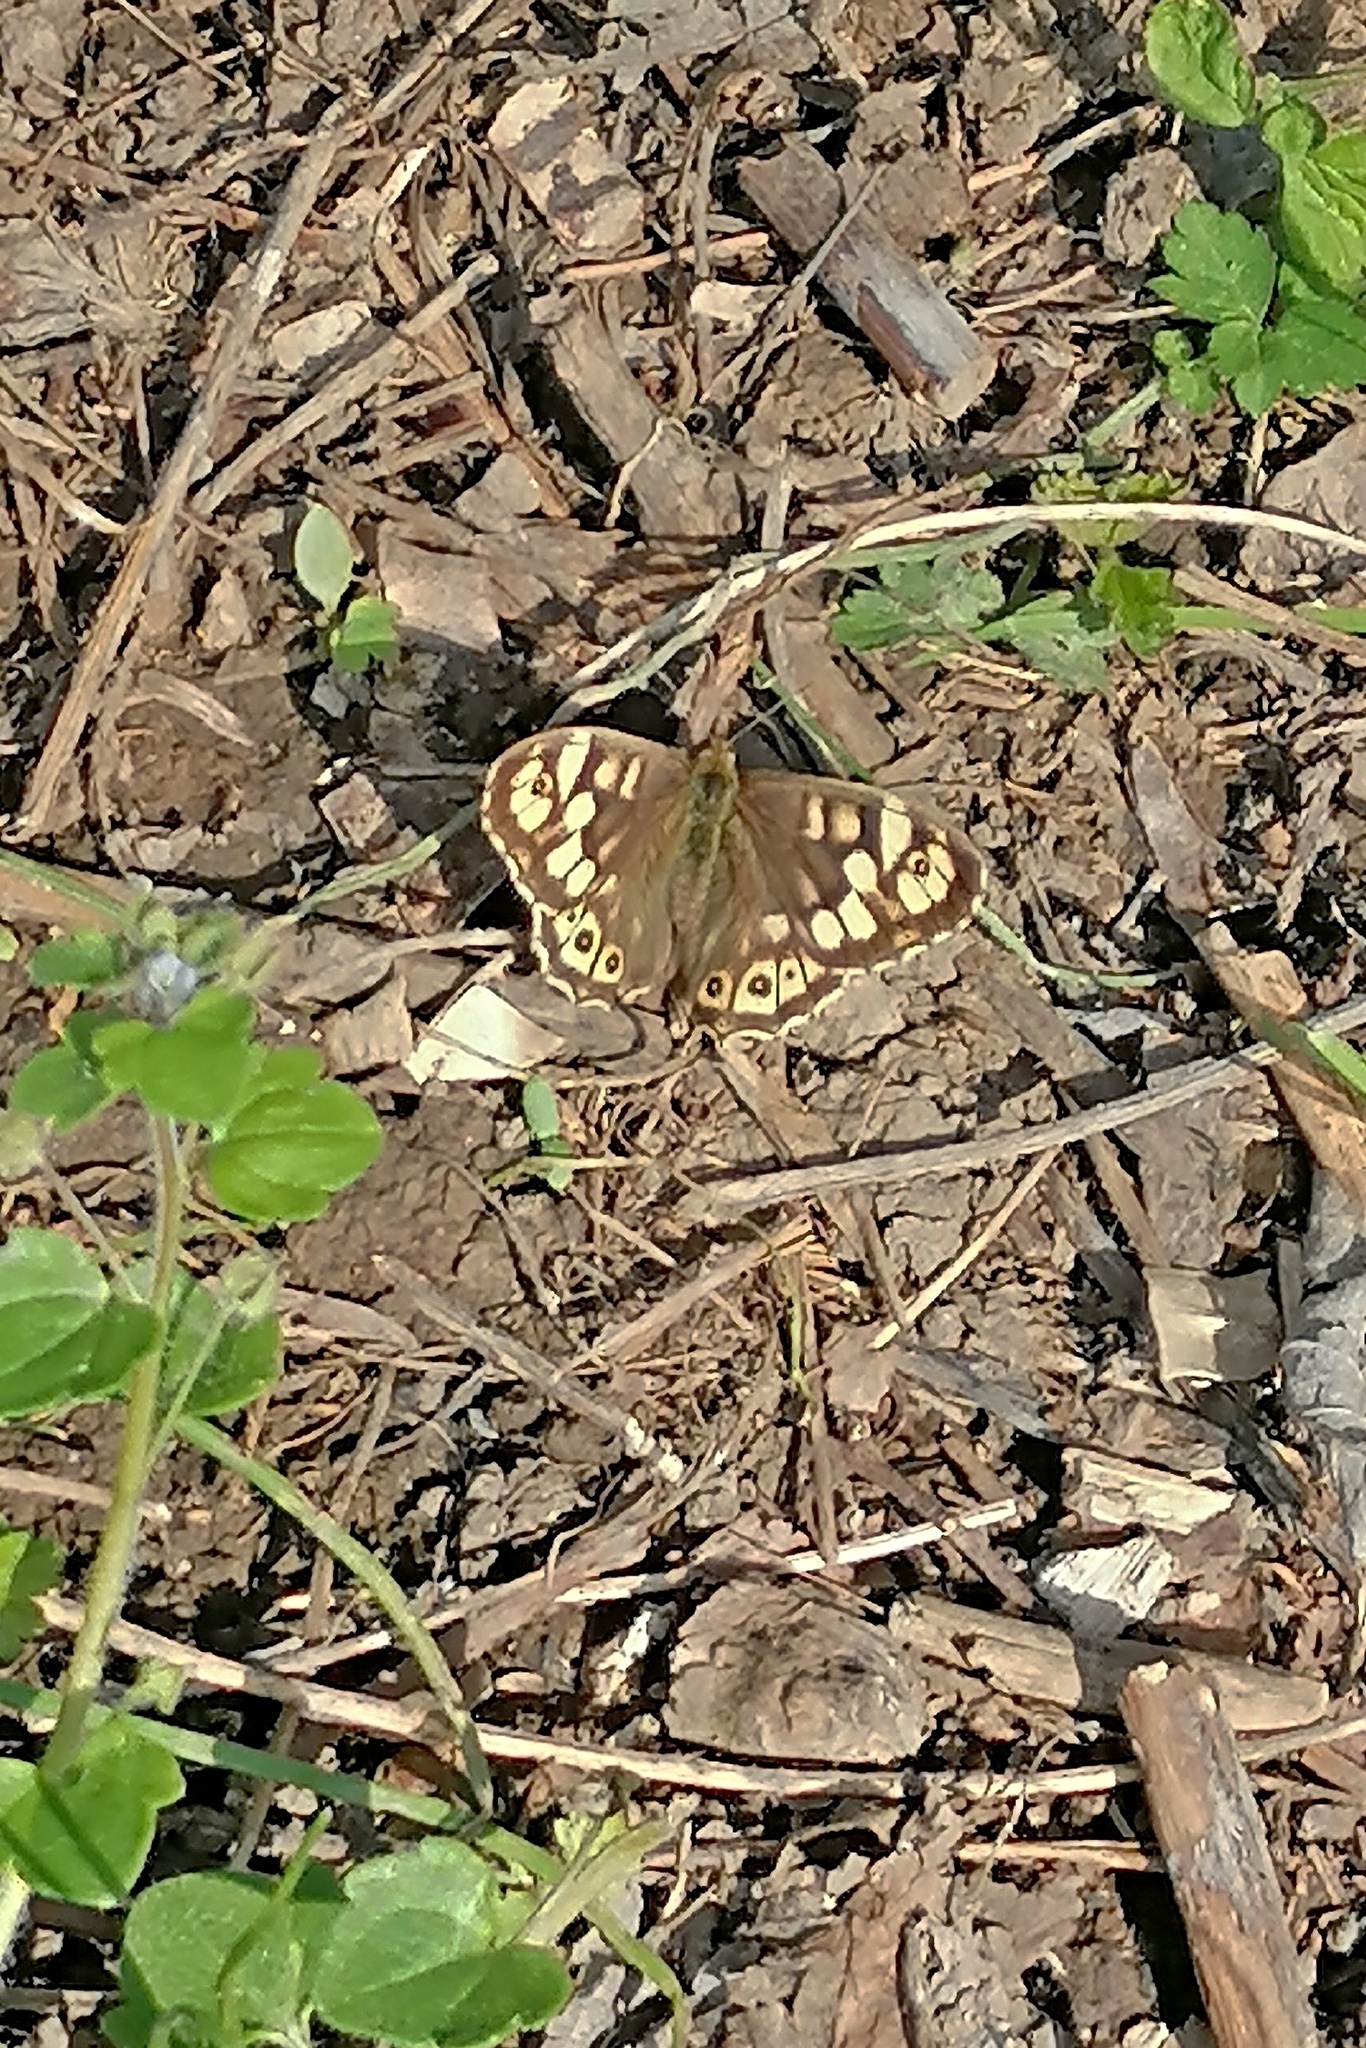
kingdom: Animalia
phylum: Arthropoda
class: Insecta
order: Lepidoptera
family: Nymphalidae
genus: Pararge
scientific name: Pararge aegeria
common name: Speckled wood
